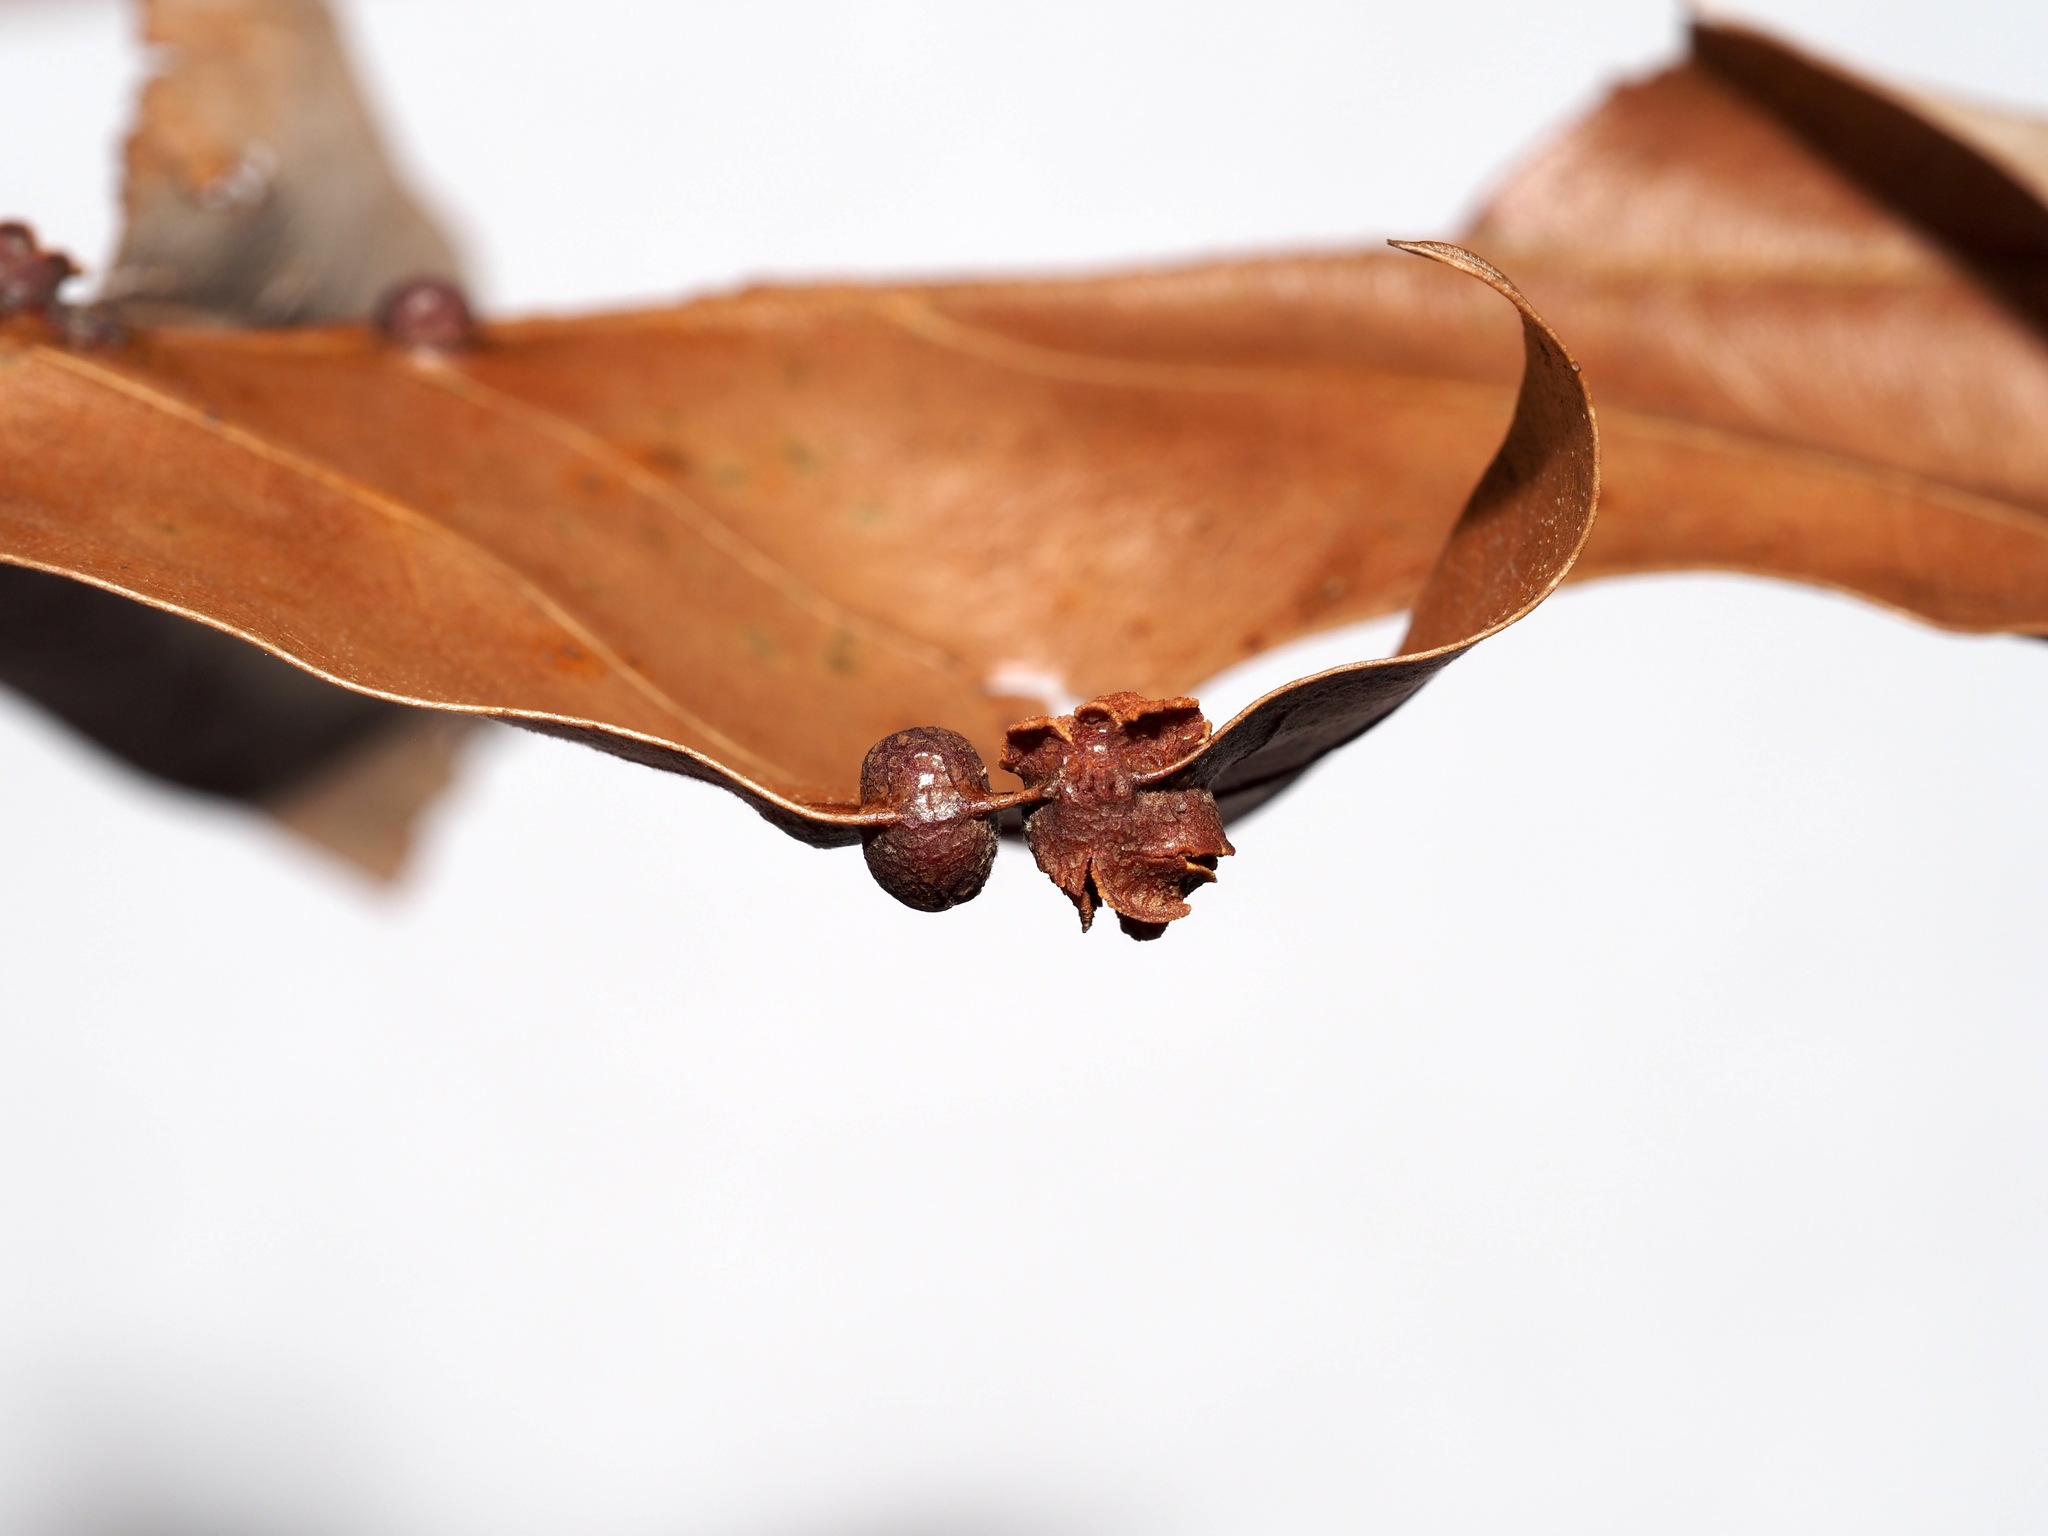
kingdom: Animalia
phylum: Arthropoda
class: Insecta
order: Diptera
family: Cecidomyiidae
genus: Polystepha
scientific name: Polystepha symmetrica
